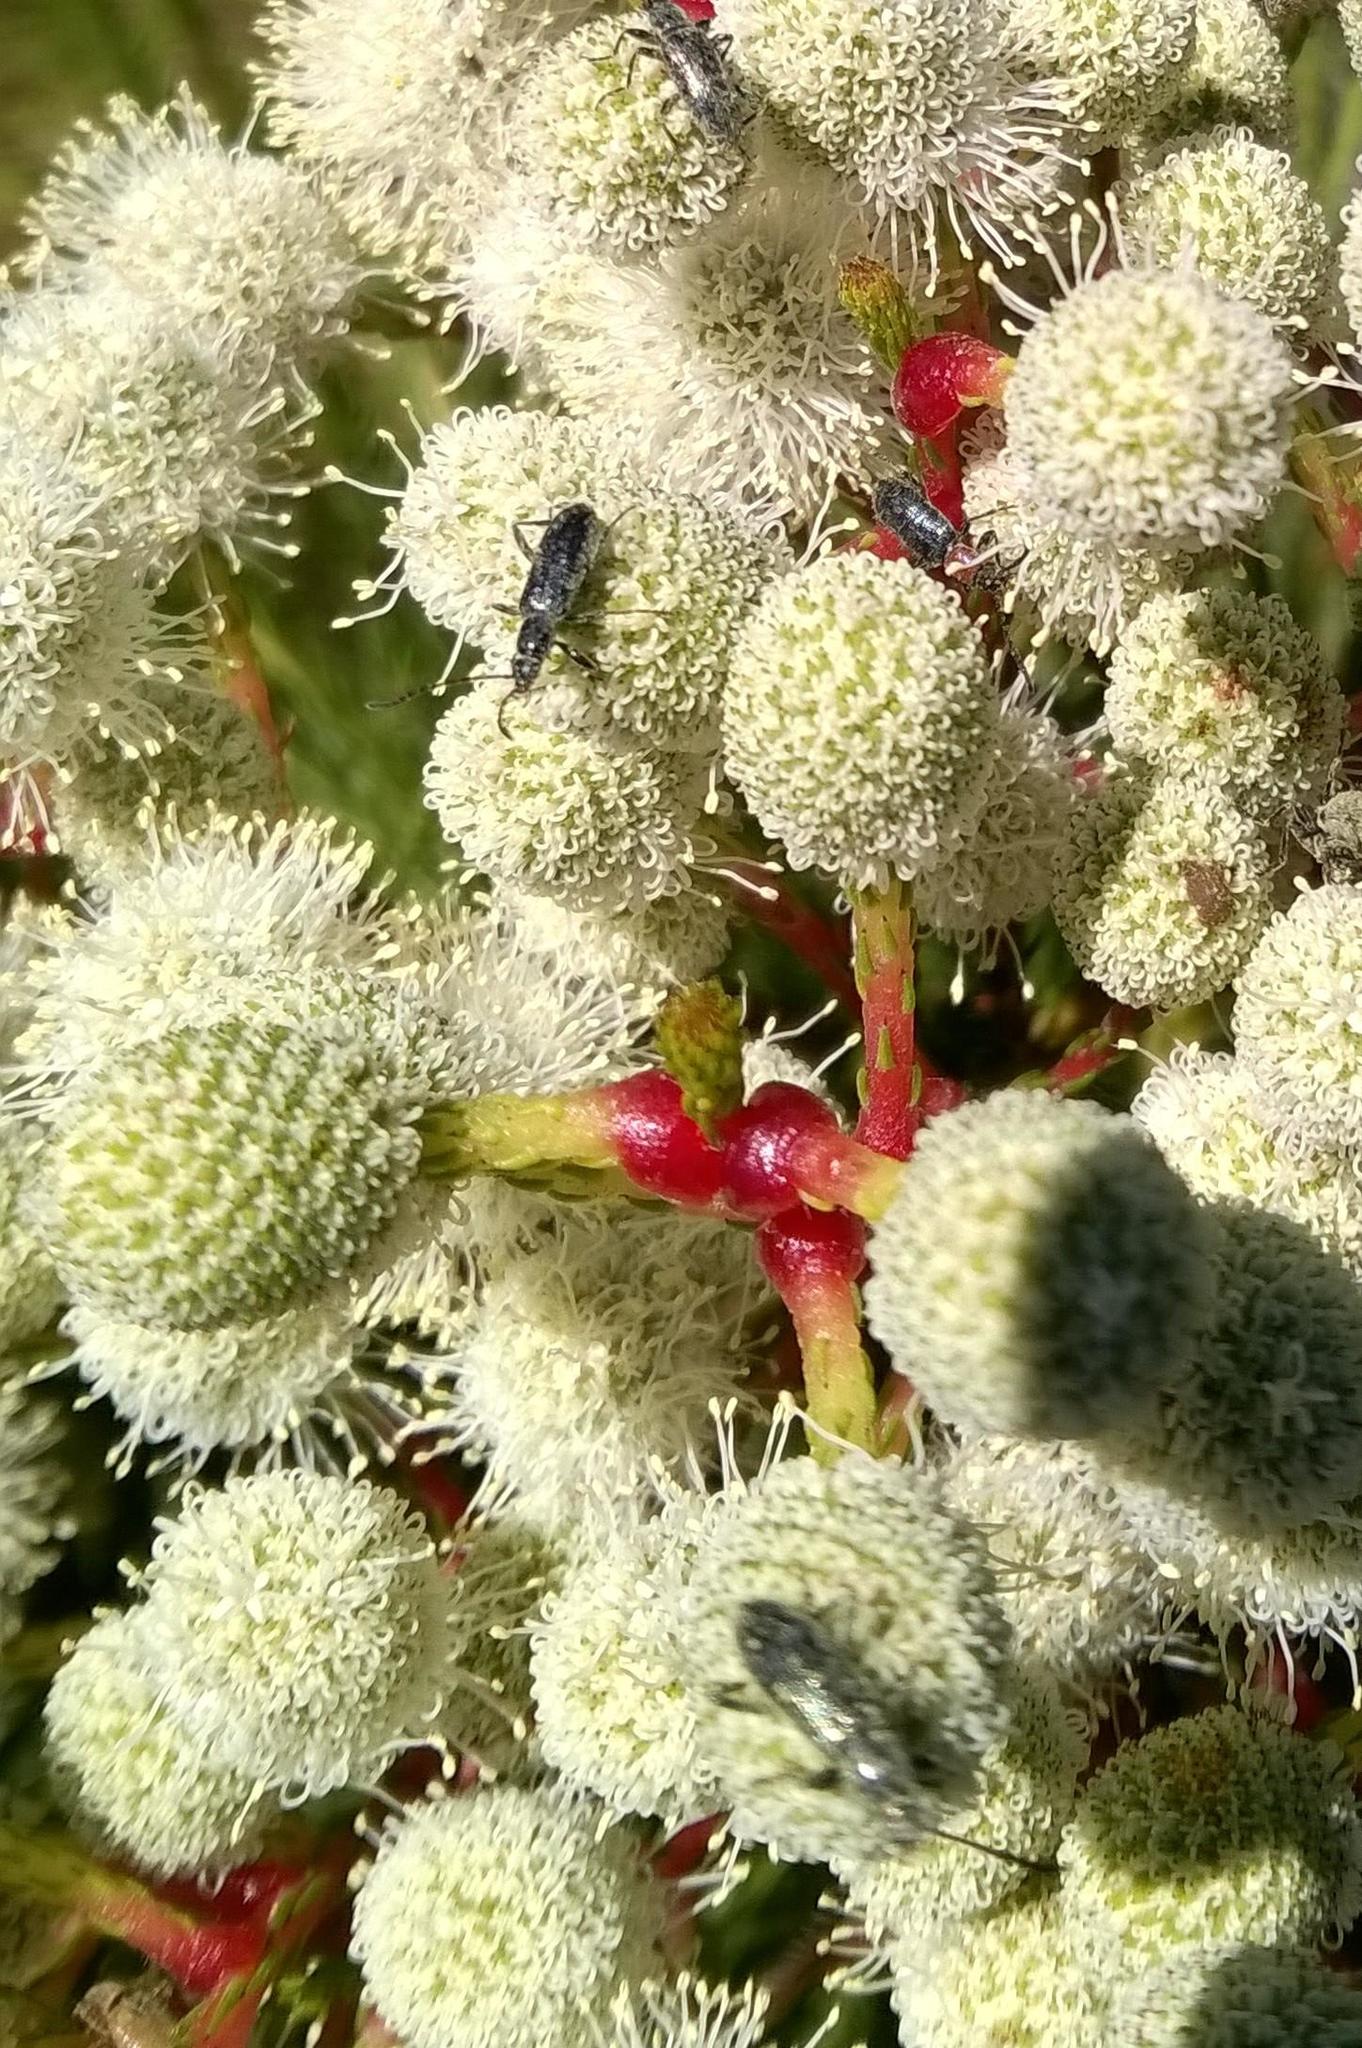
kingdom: Plantae
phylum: Tracheophyta
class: Magnoliopsida
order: Bruniales
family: Bruniaceae
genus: Brunia
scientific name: Brunia noduliflora
